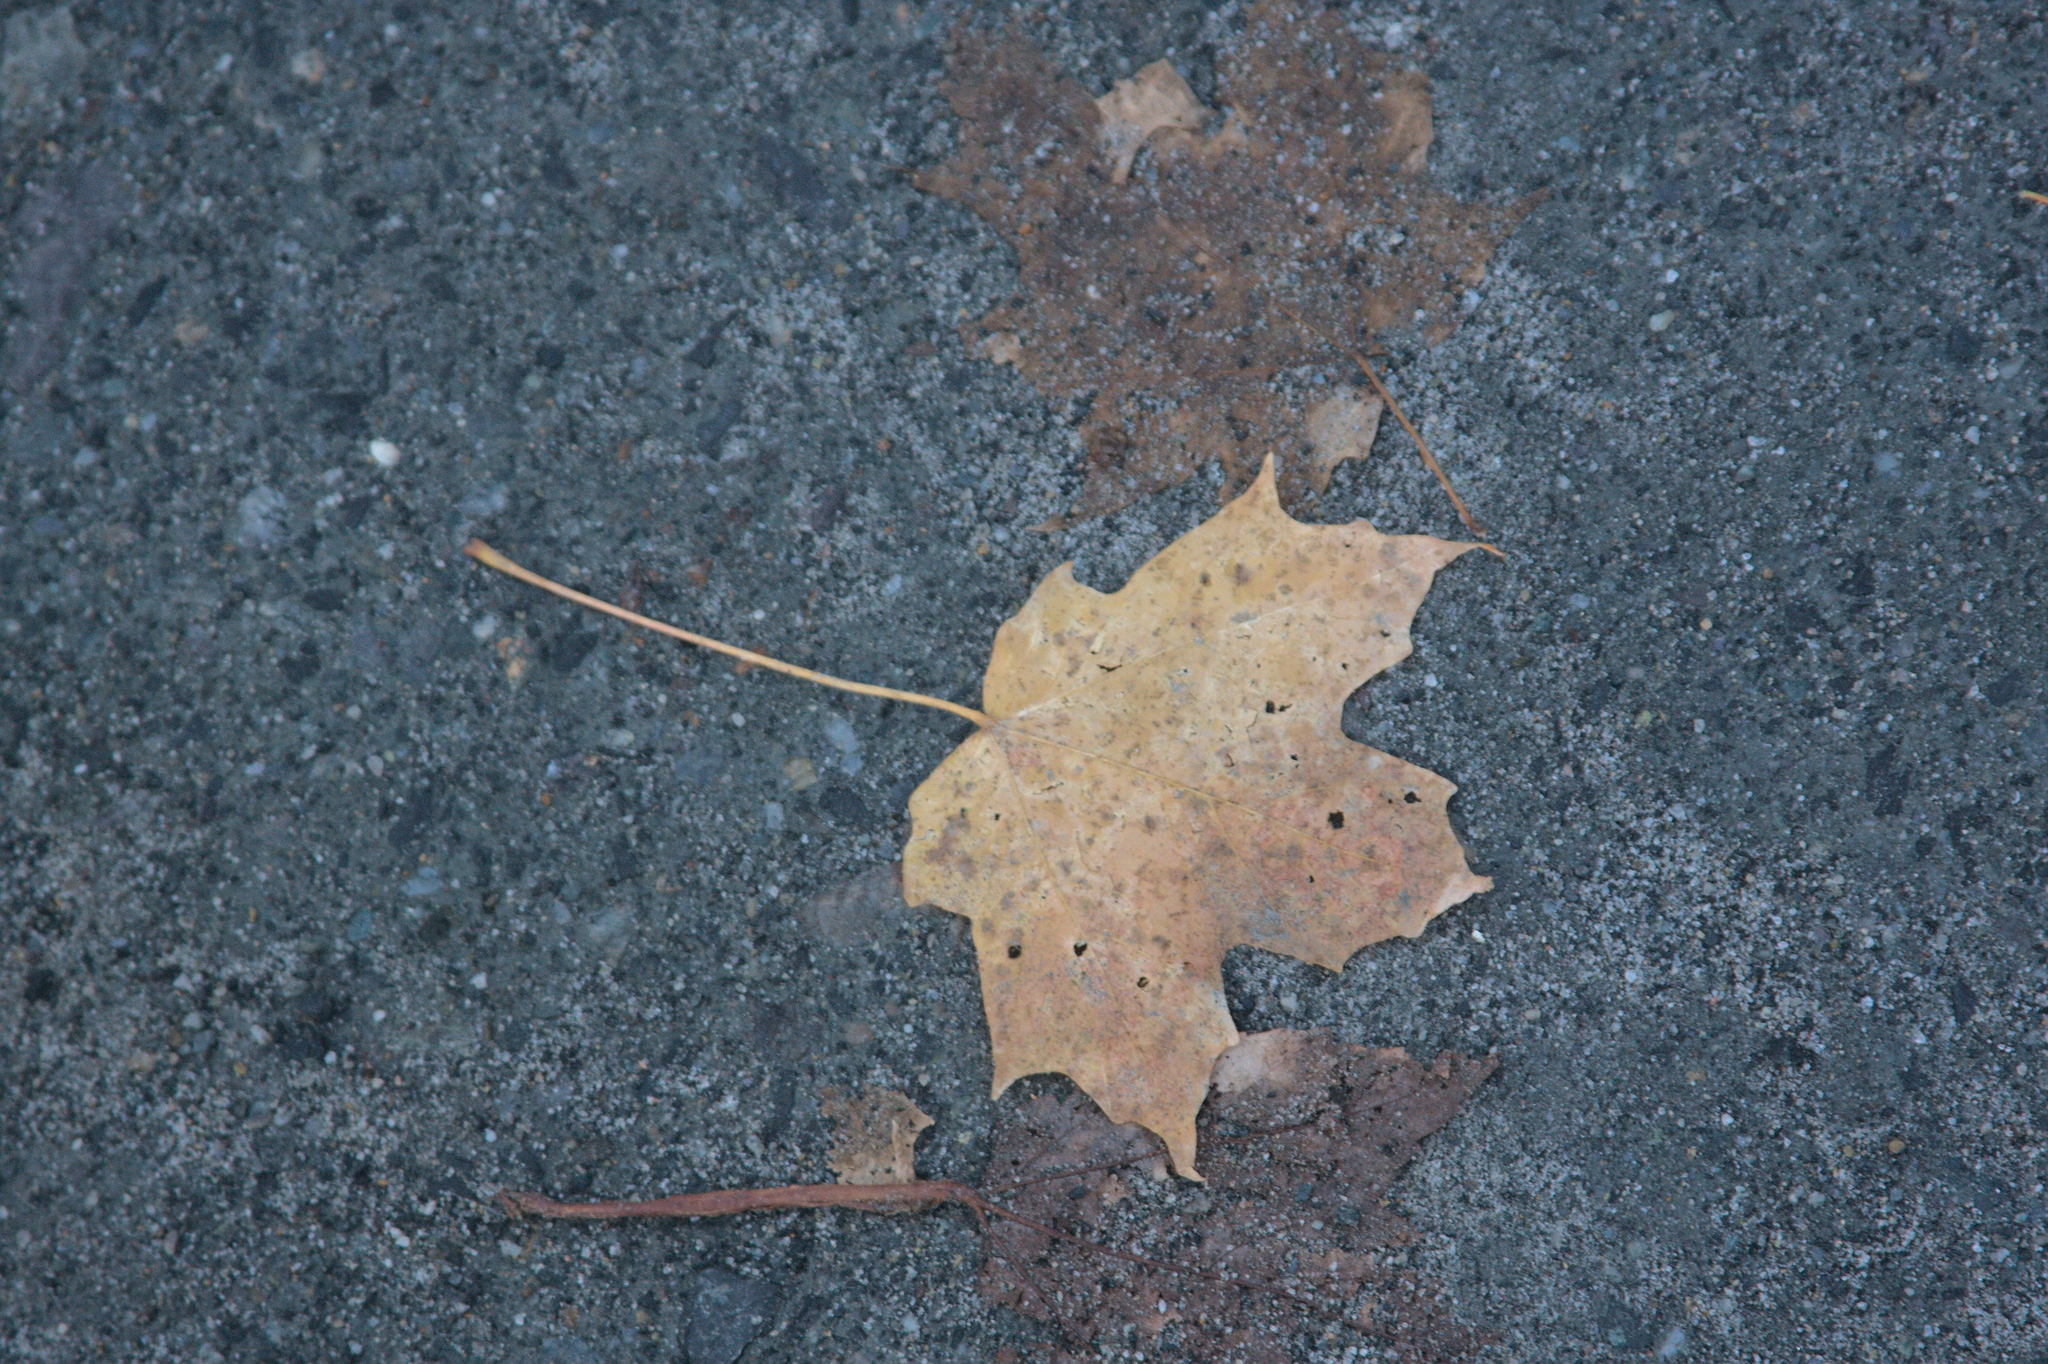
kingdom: Plantae
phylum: Tracheophyta
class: Magnoliopsida
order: Sapindales
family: Sapindaceae
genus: Acer
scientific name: Acer saccharum
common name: Sugar maple
